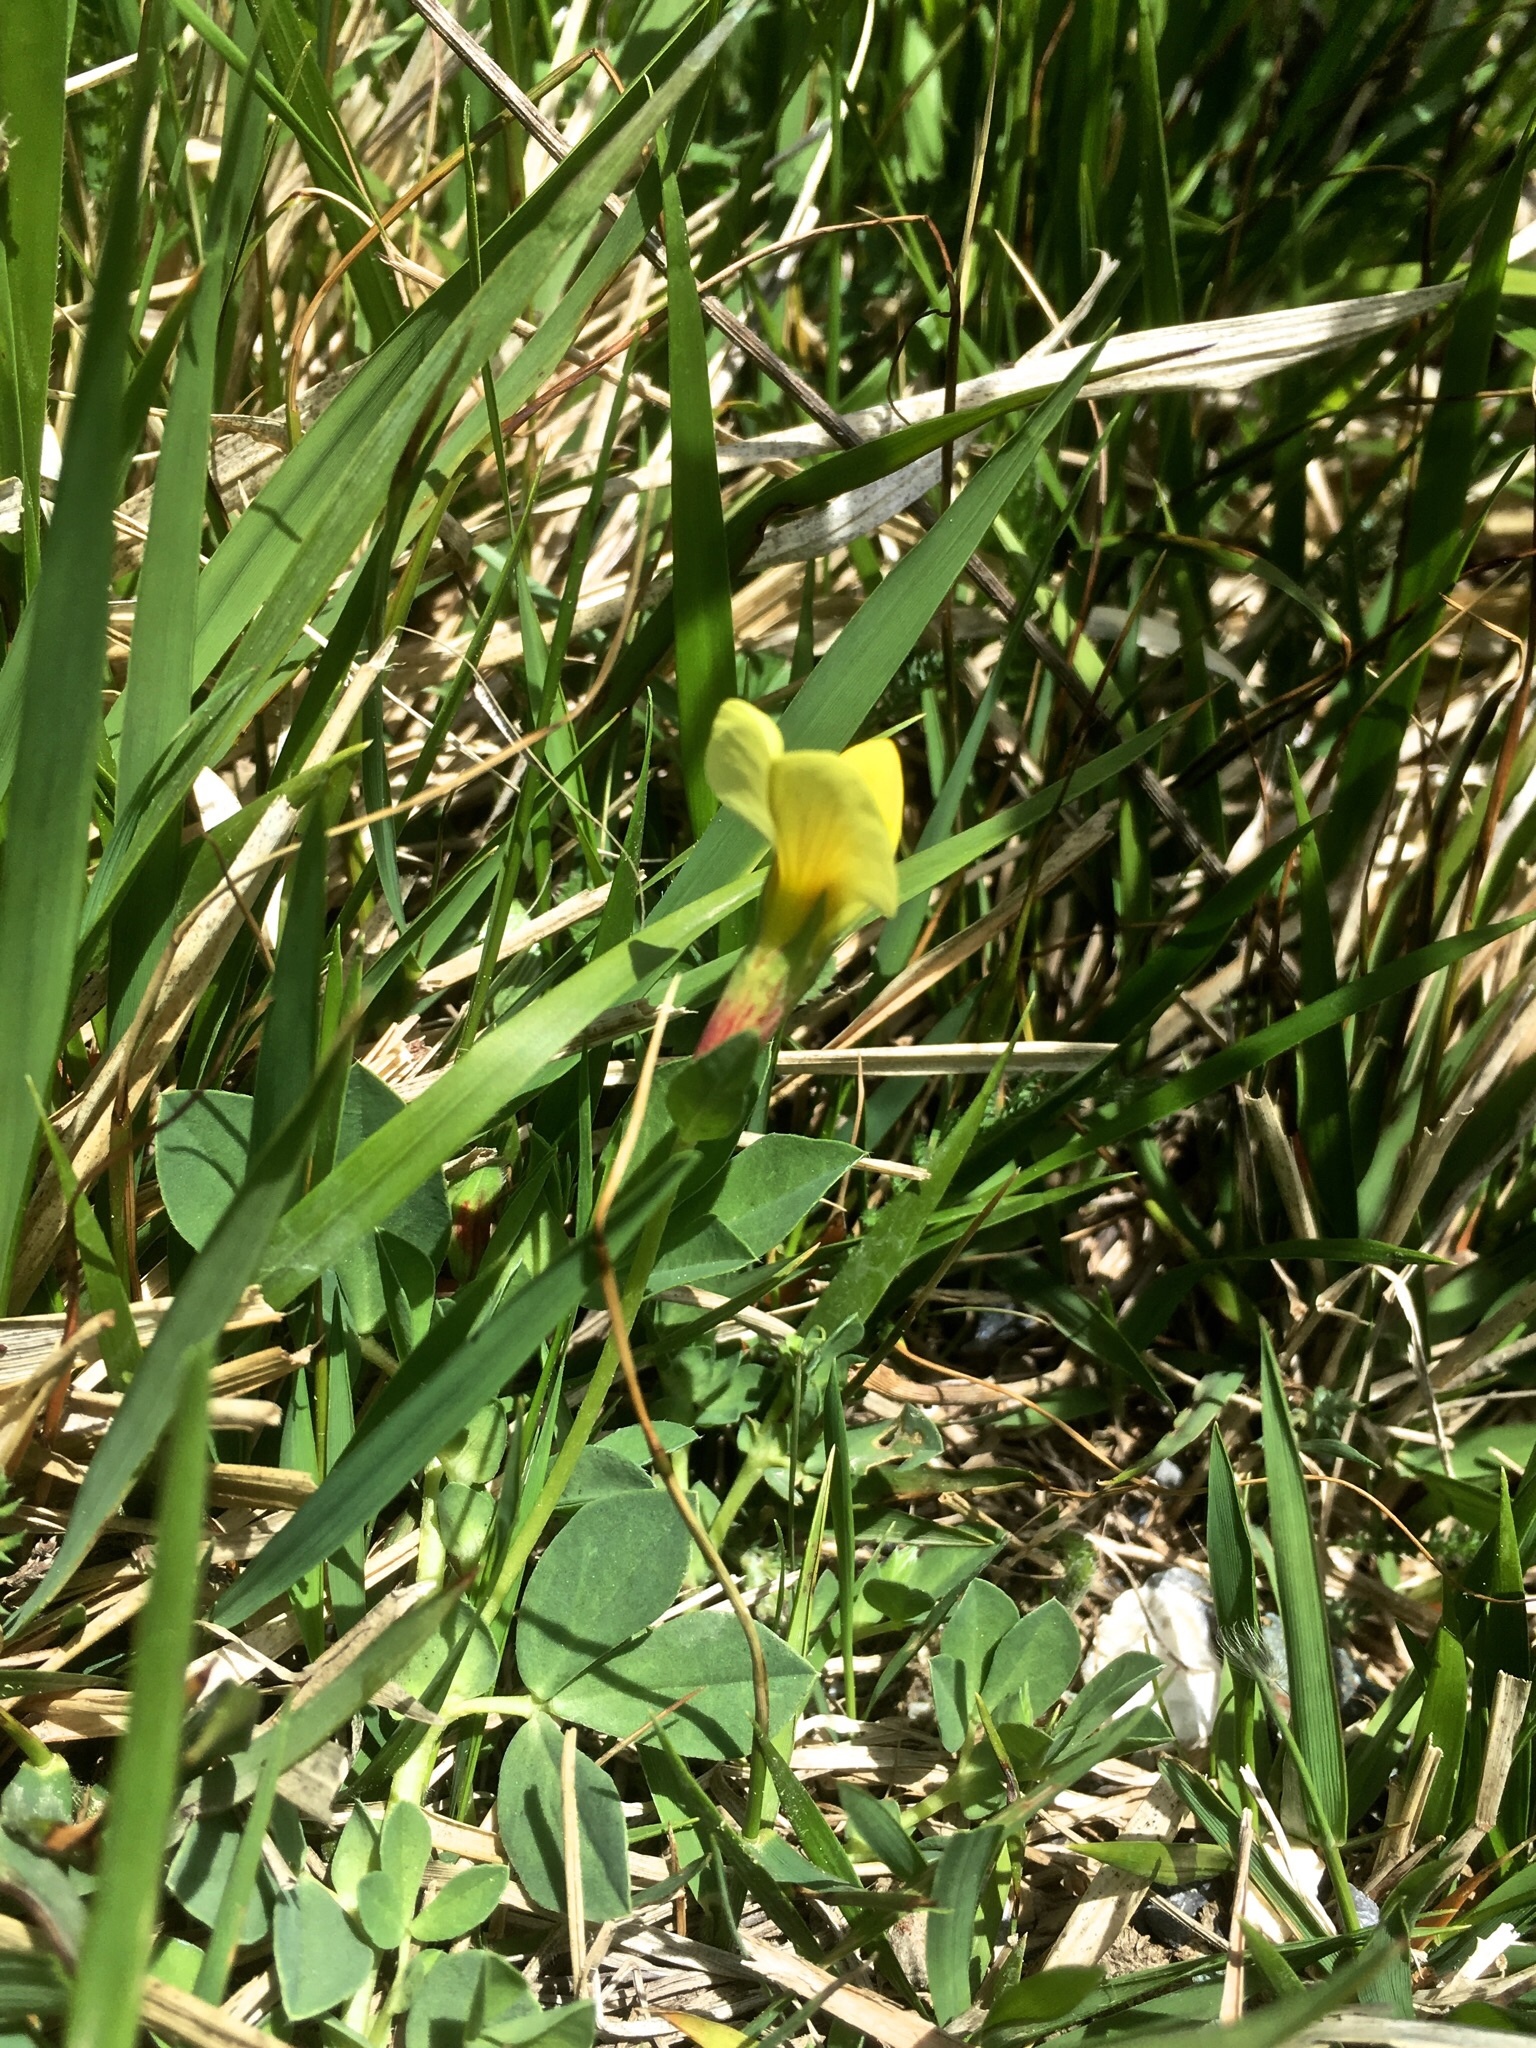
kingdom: Plantae
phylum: Tracheophyta
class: Magnoliopsida
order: Fabales
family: Fabaceae
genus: Lotus
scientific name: Lotus maritimus
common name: Dragon's-teeth
